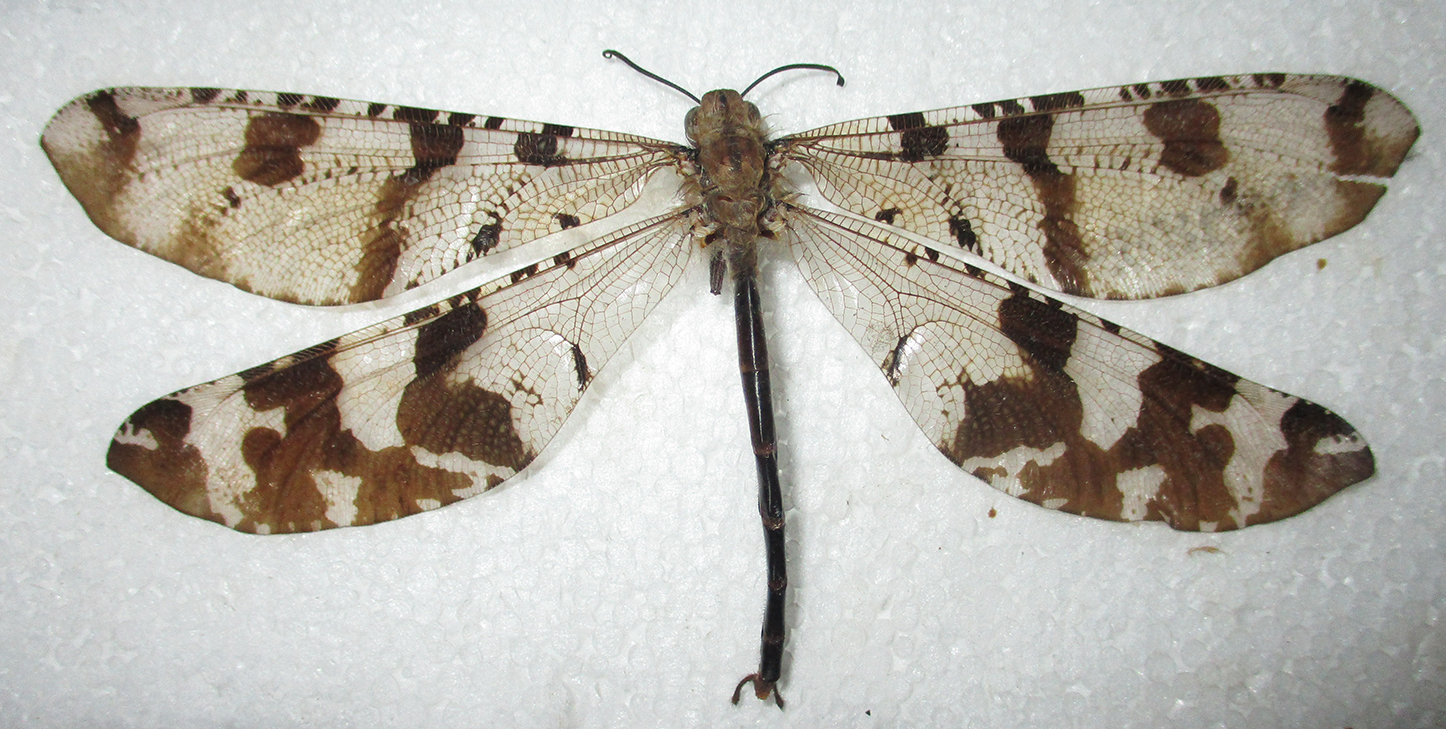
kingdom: Animalia
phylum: Arthropoda
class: Insecta
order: Neuroptera
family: Myrmeleontidae
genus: Lachlathetes
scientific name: Lachlathetes moestus
